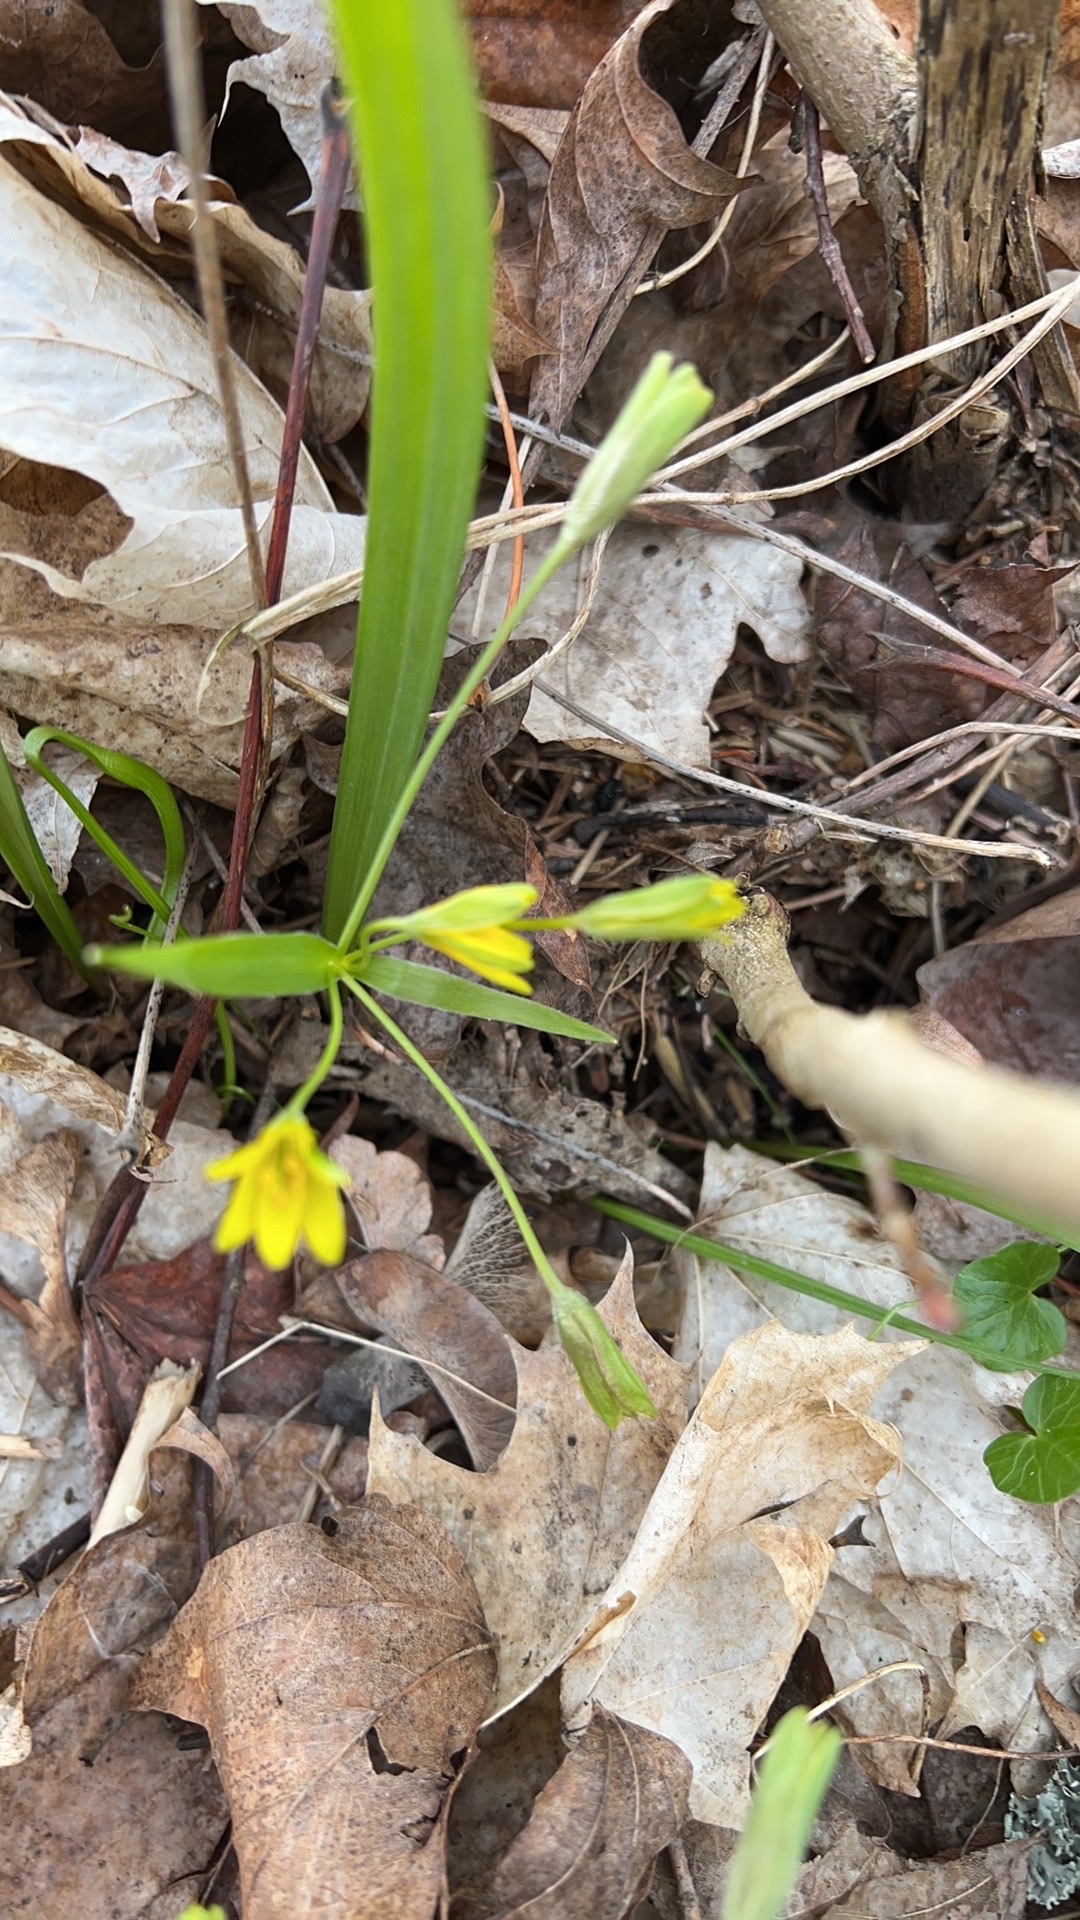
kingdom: Plantae
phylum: Tracheophyta
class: Liliopsida
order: Liliales
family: Liliaceae
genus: Gagea
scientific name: Gagea lutea
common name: Yellow star-of-bethlehem
